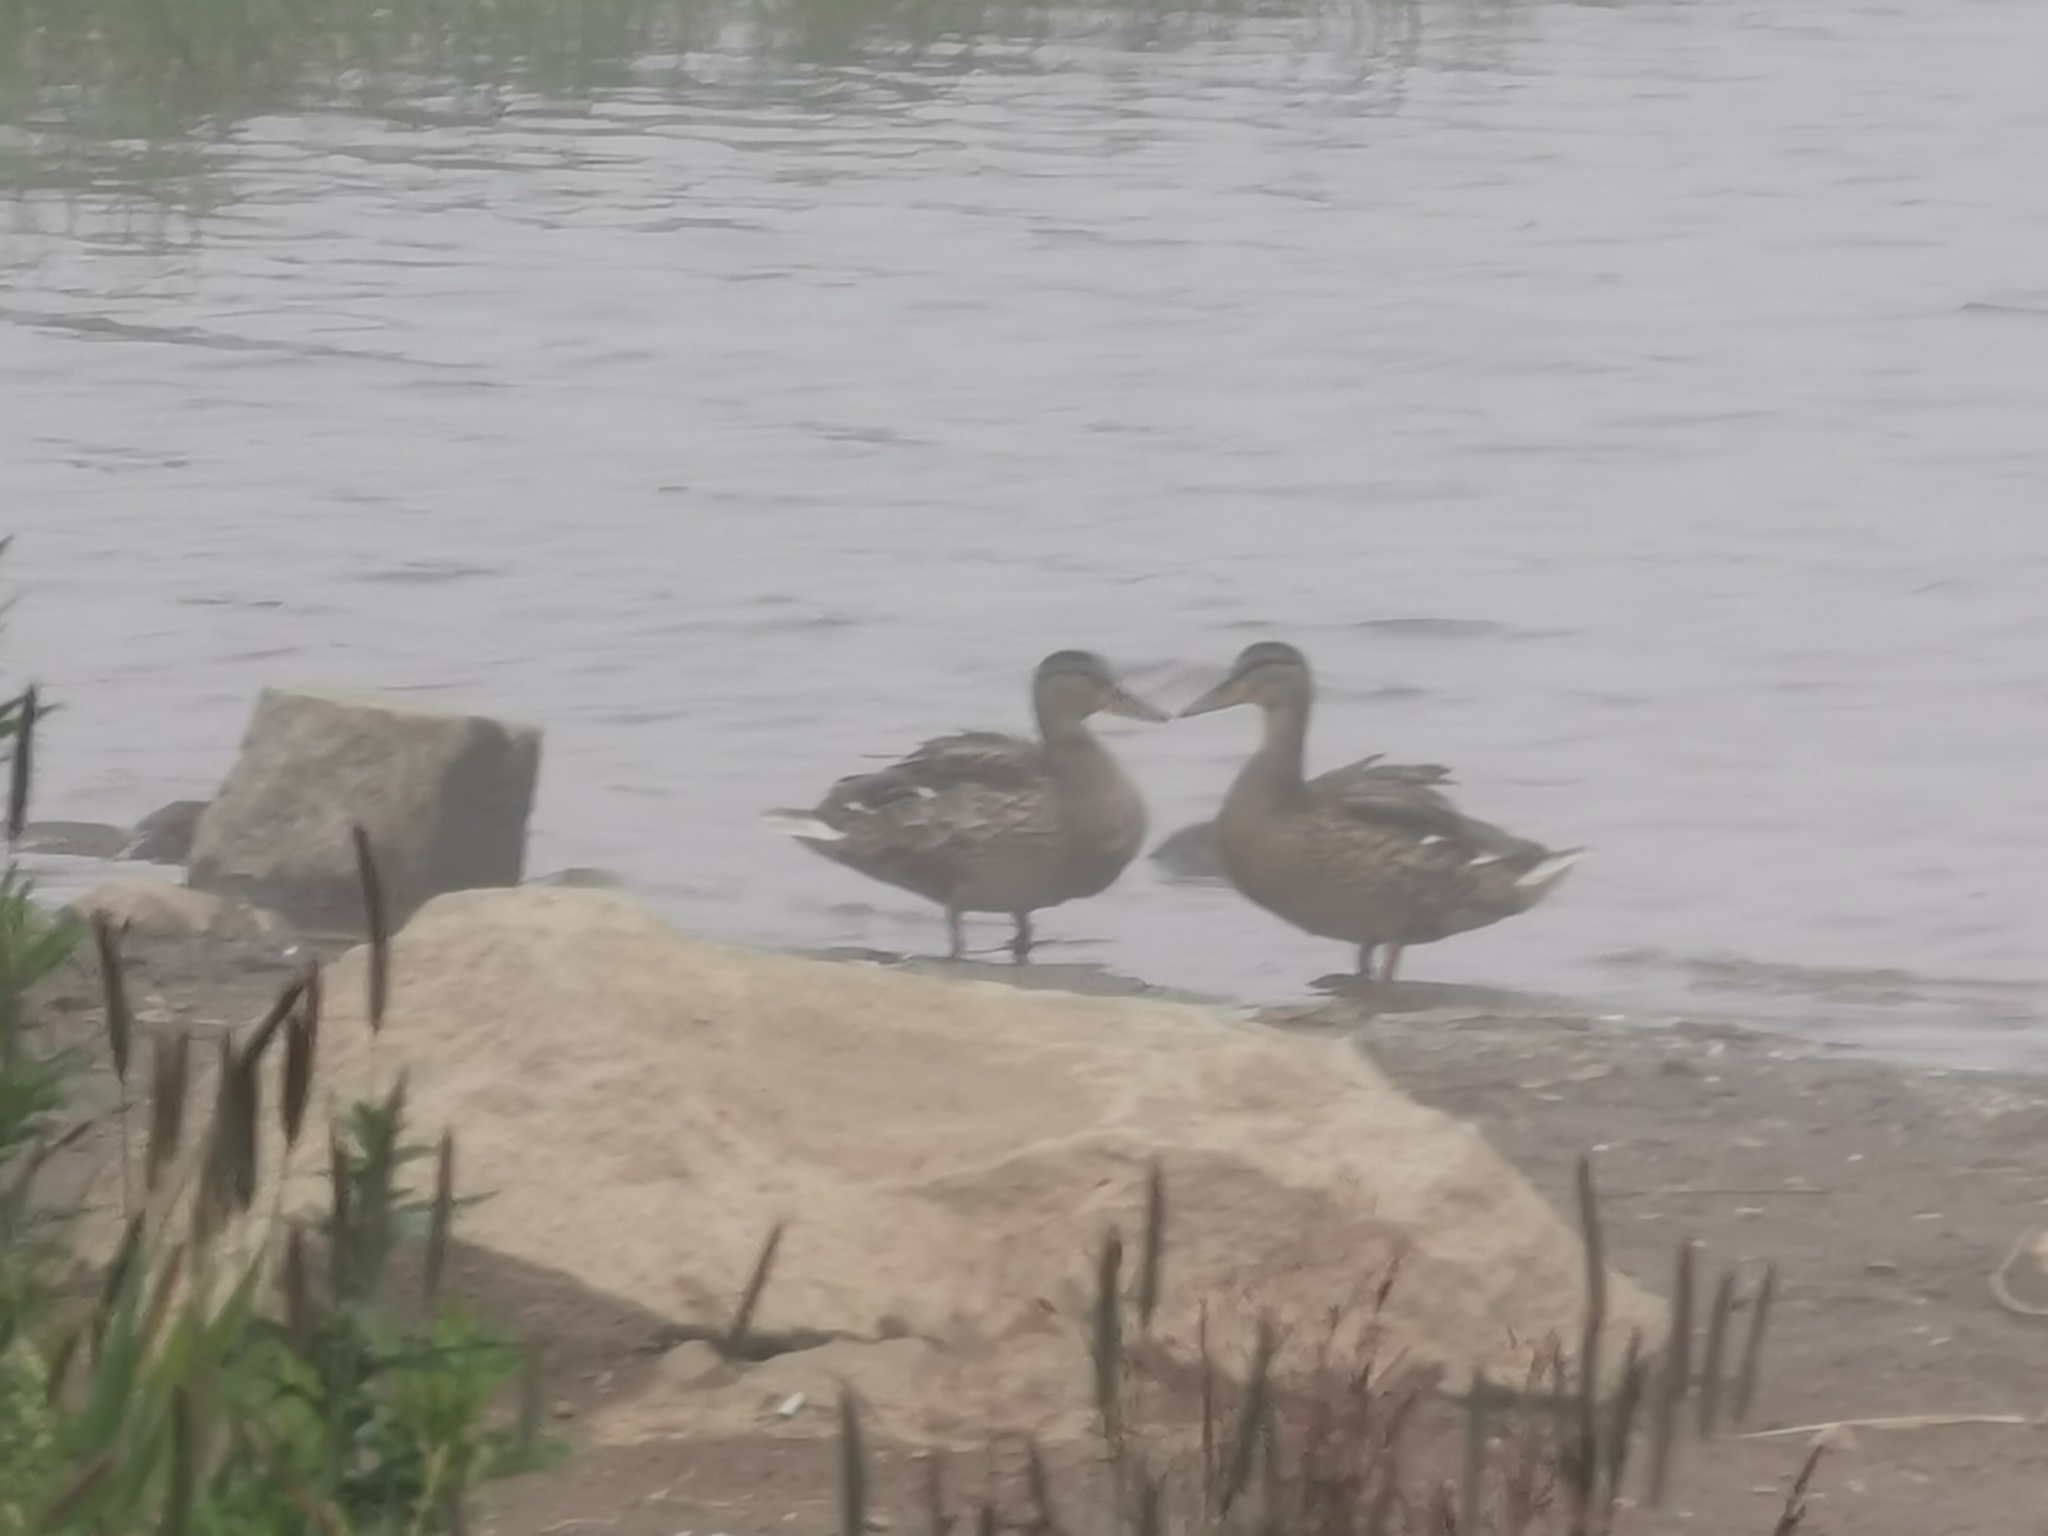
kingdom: Animalia
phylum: Chordata
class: Aves
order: Anseriformes
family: Anatidae
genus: Anas
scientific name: Anas platyrhynchos
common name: Mallard
